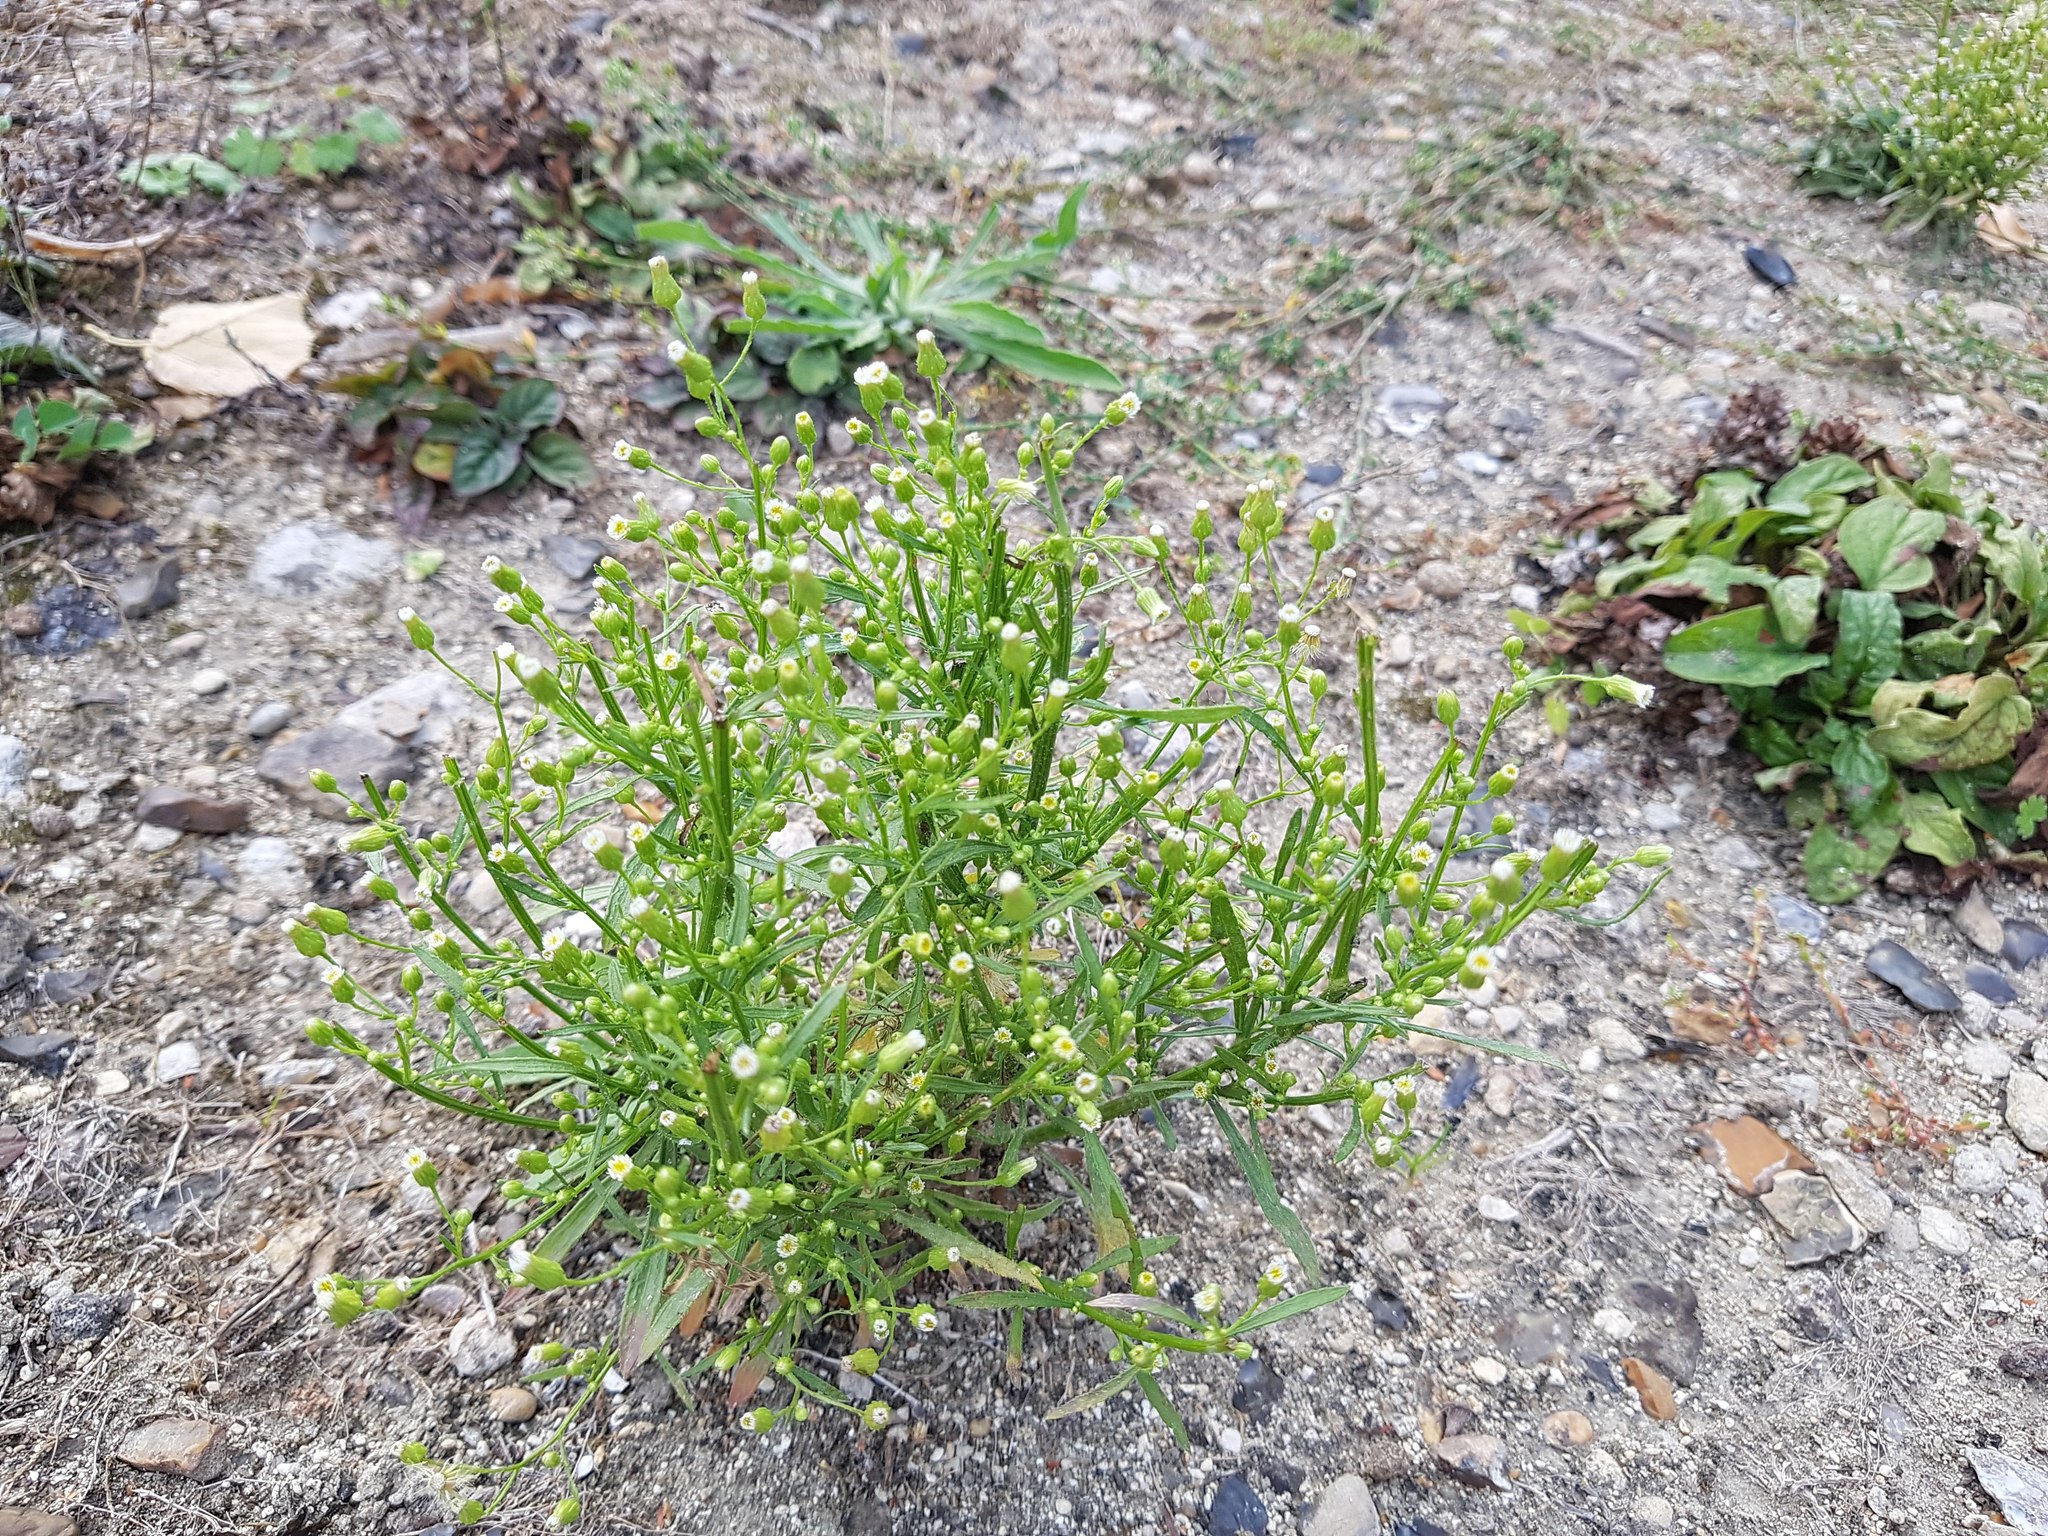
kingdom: Plantae
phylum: Tracheophyta
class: Magnoliopsida
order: Asterales
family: Asteraceae
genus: Erigeron
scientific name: Erigeron canadensis
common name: Canadian fleabane
